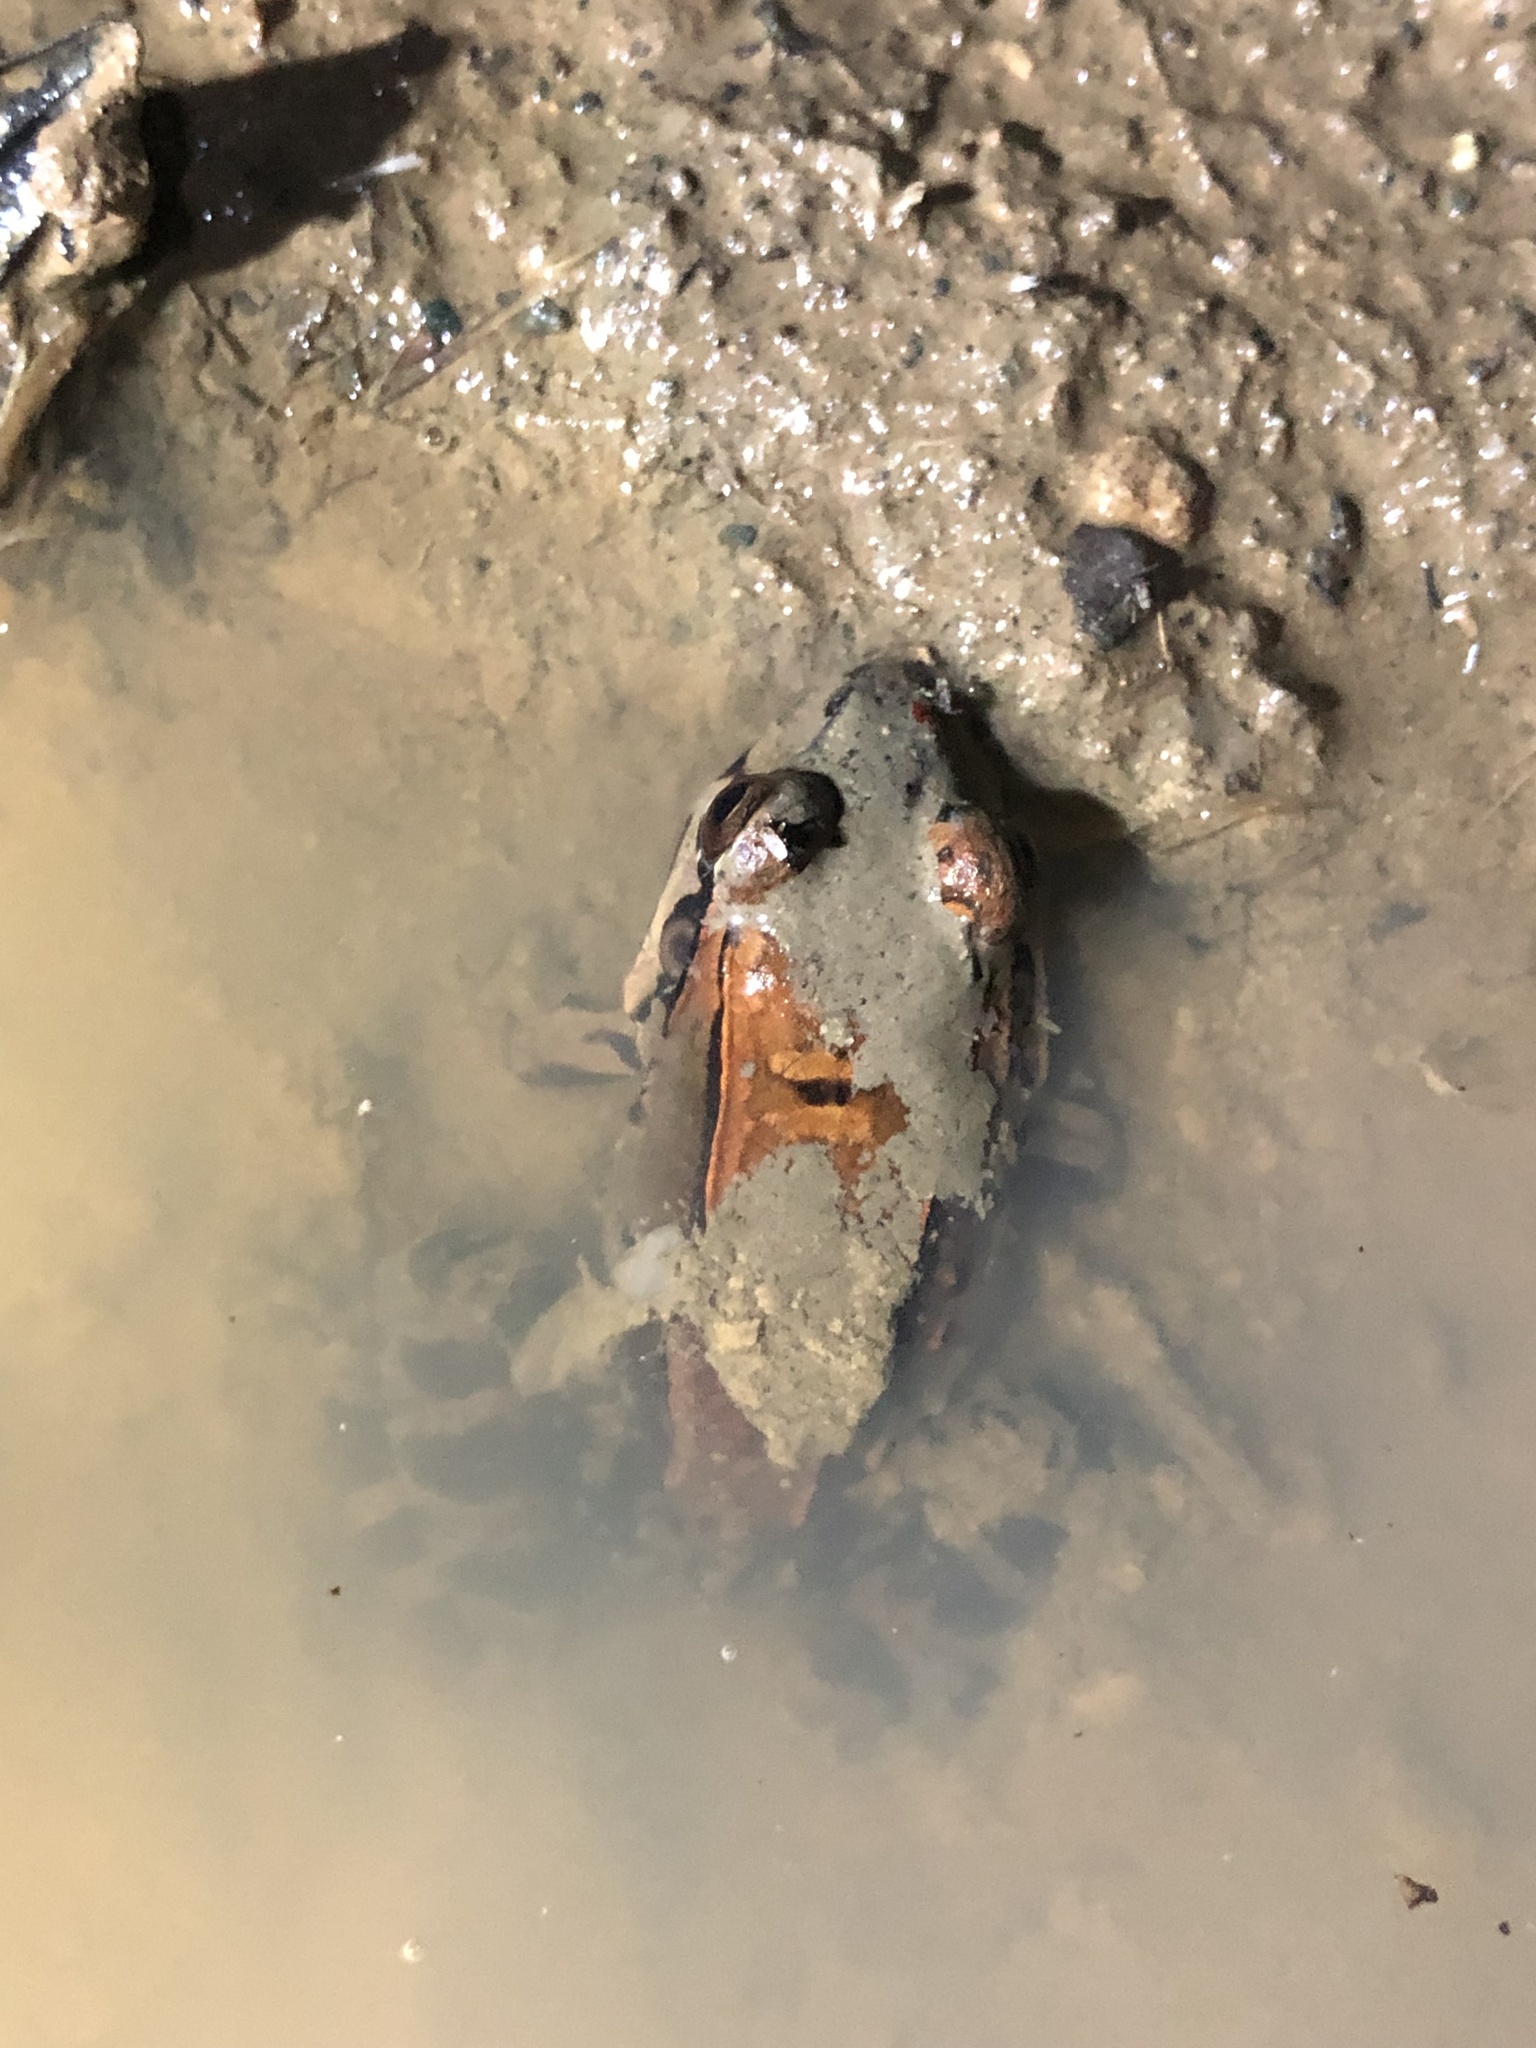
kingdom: Animalia
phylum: Chordata
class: Amphibia
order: Anura
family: Leptodactylidae
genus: Leptodactylus
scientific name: Leptodactylus savagei
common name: Savage's thin-toed frog
